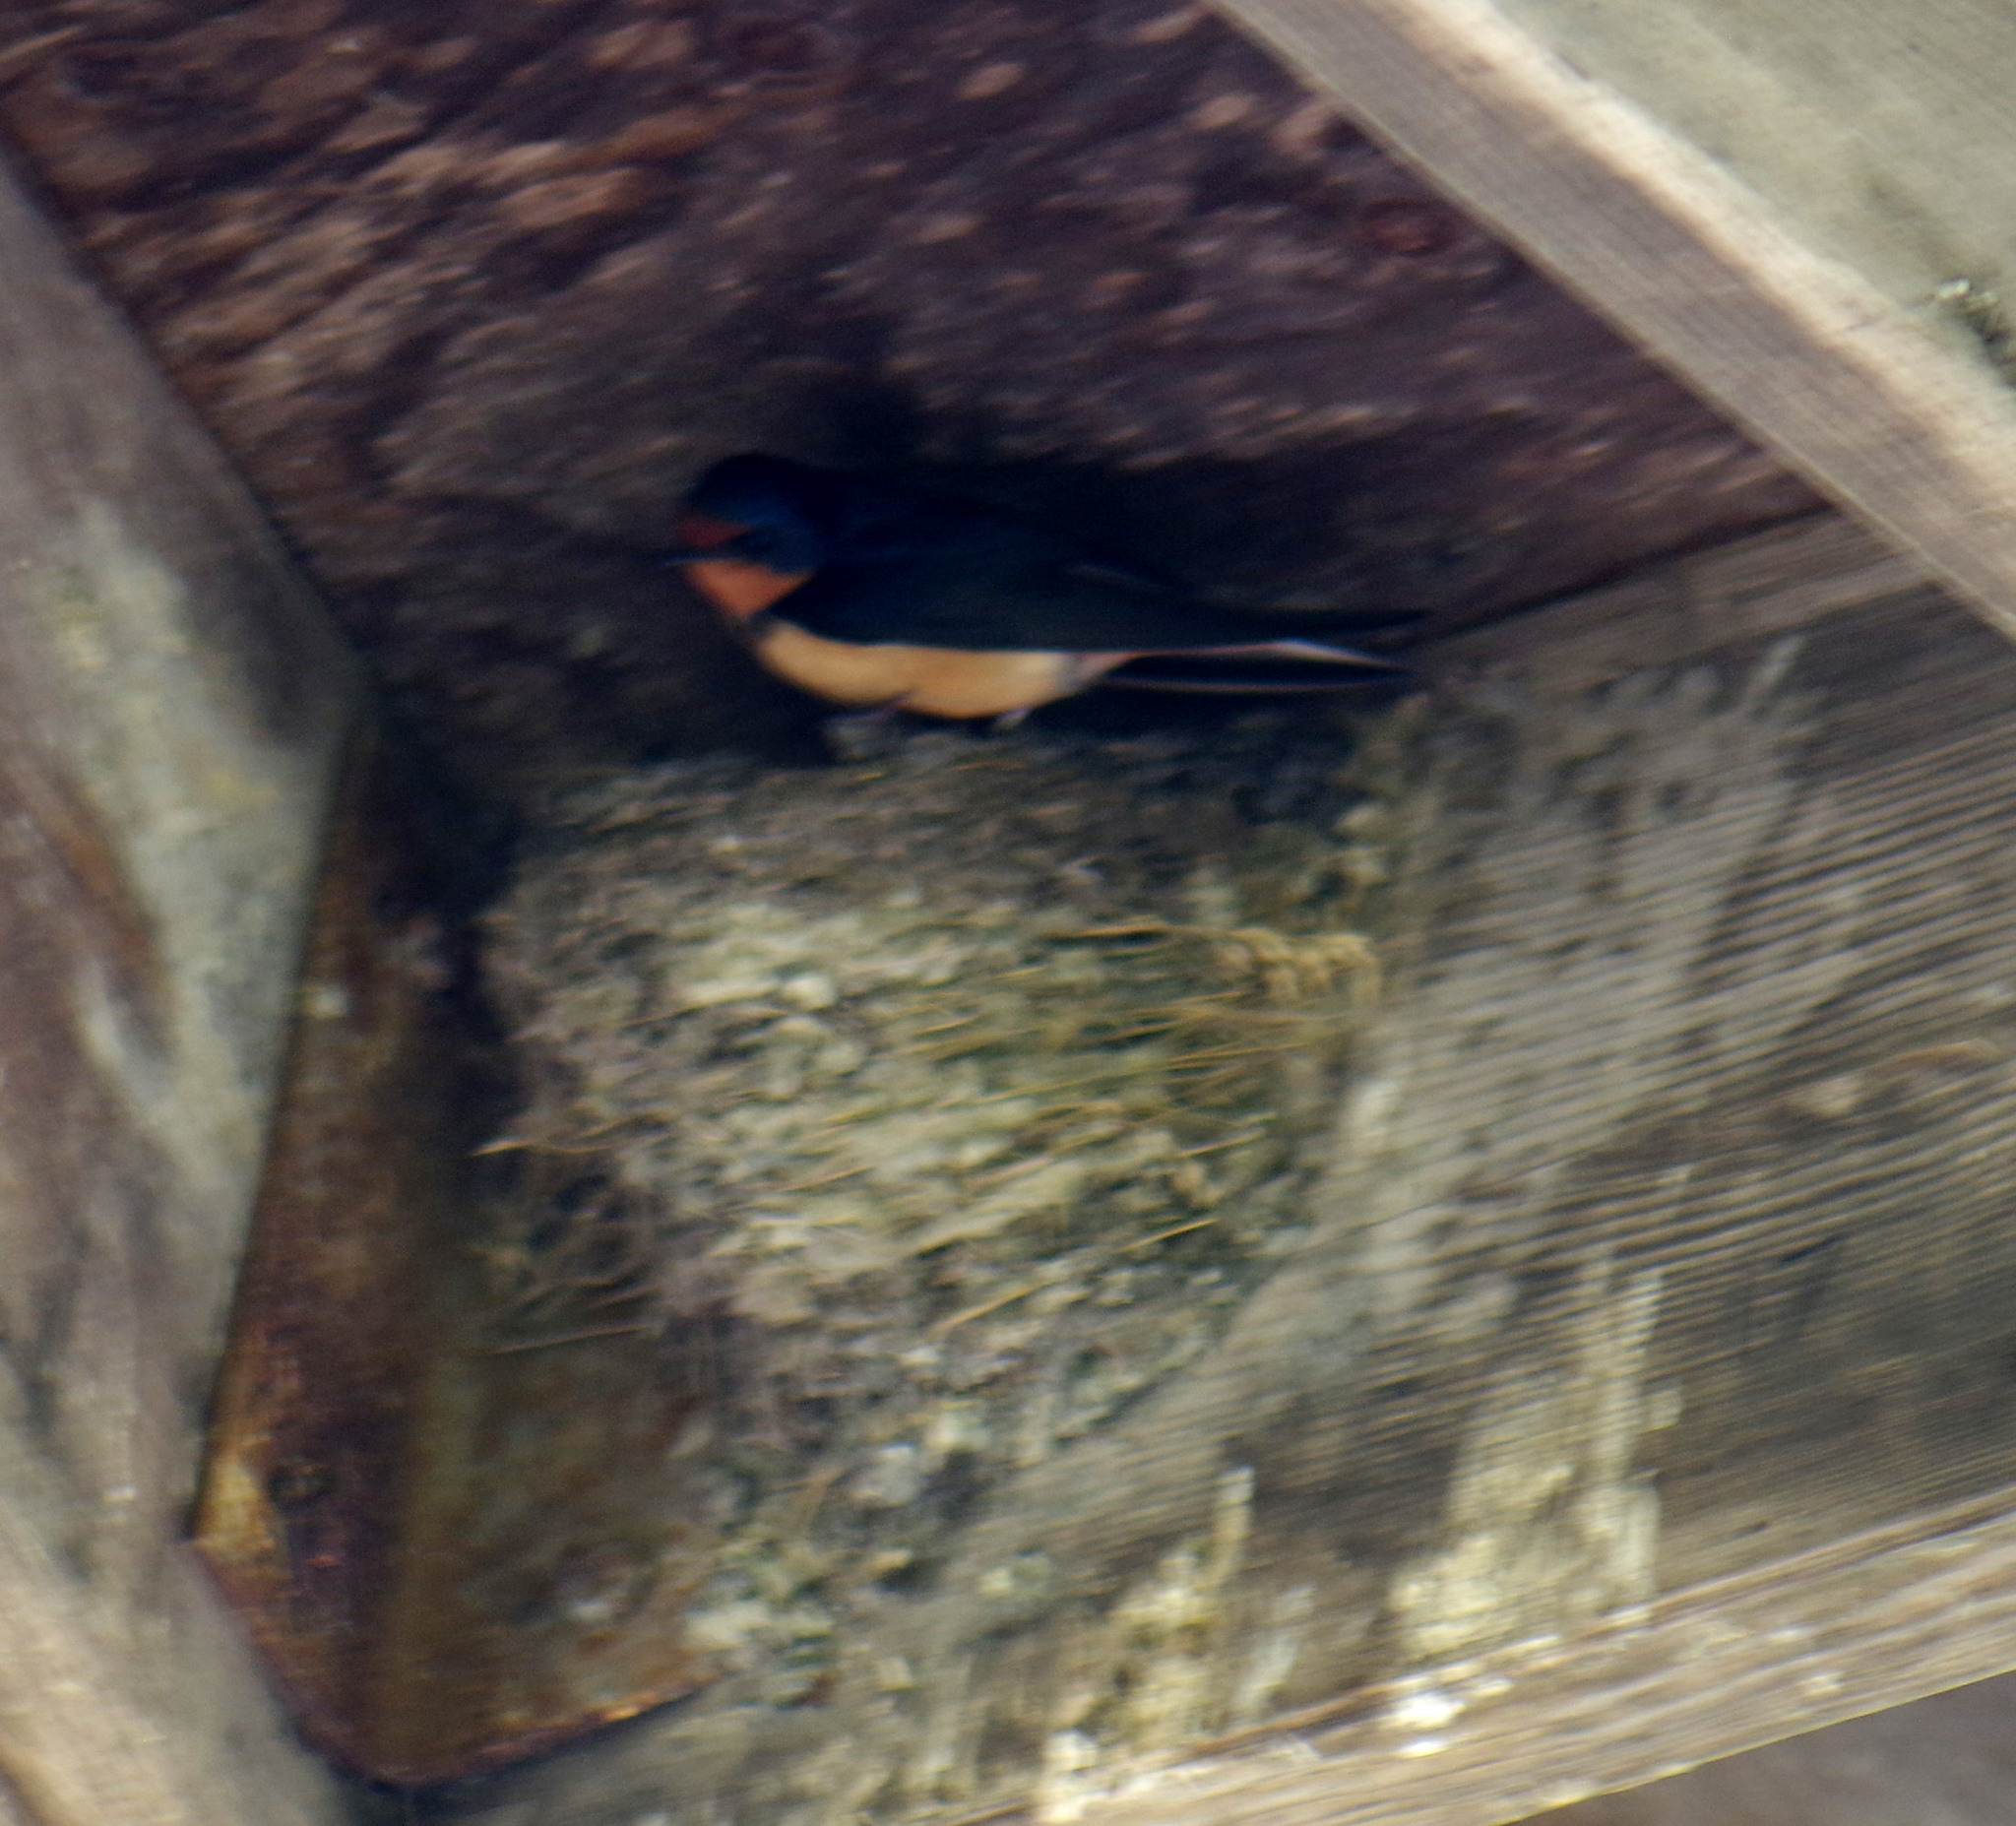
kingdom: Animalia
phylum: Chordata
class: Aves
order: Passeriformes
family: Hirundinidae
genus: Hirundo
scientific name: Hirundo rustica
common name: Barn swallow
